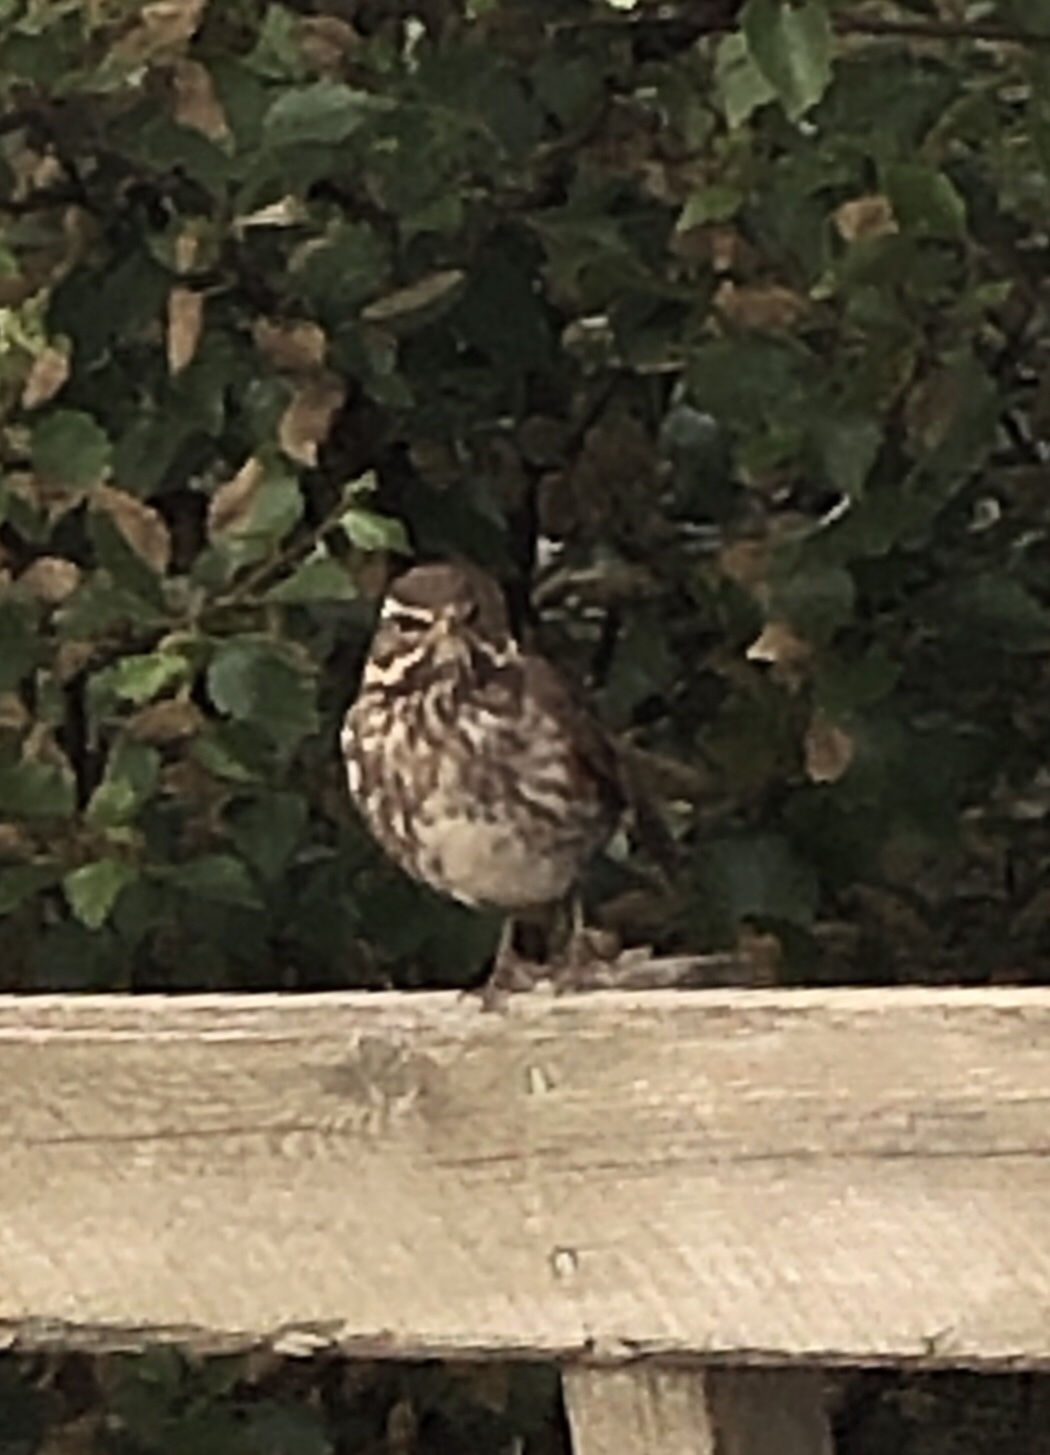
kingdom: Animalia
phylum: Chordata
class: Aves
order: Passeriformes
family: Turdidae
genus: Turdus
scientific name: Turdus iliacus
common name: Redwing
